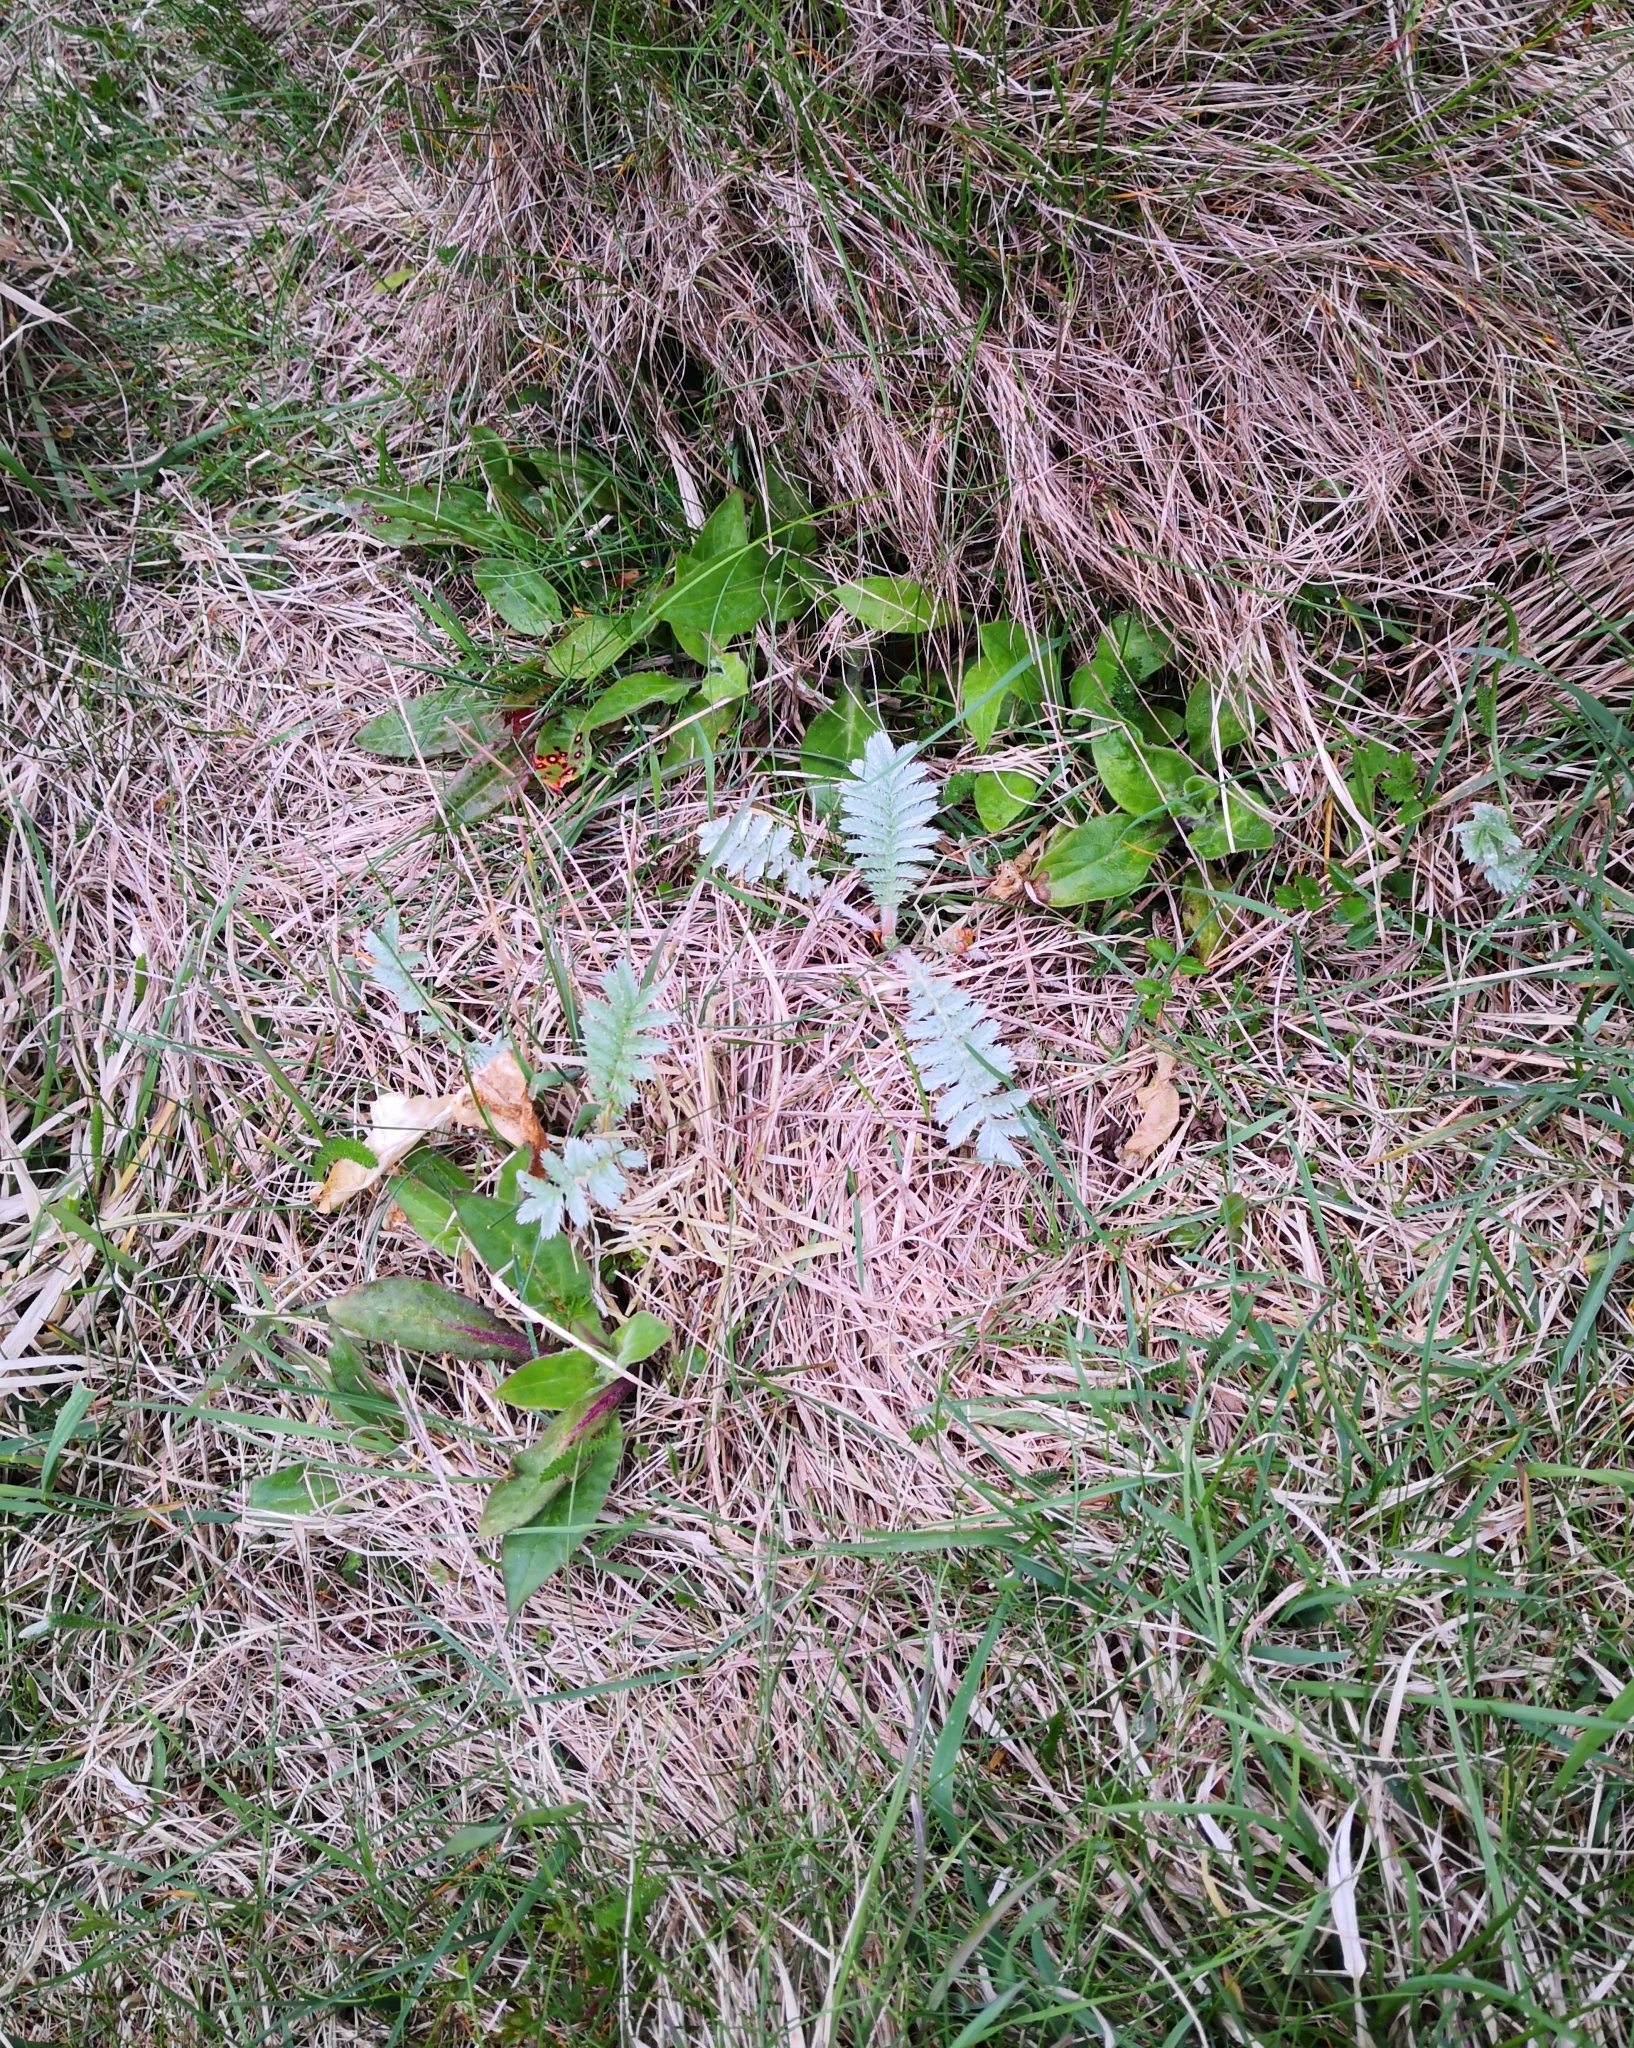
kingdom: Plantae
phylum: Tracheophyta
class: Magnoliopsida
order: Rosales
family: Rosaceae
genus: Argentina
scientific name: Argentina anserina
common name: Common silverweed
